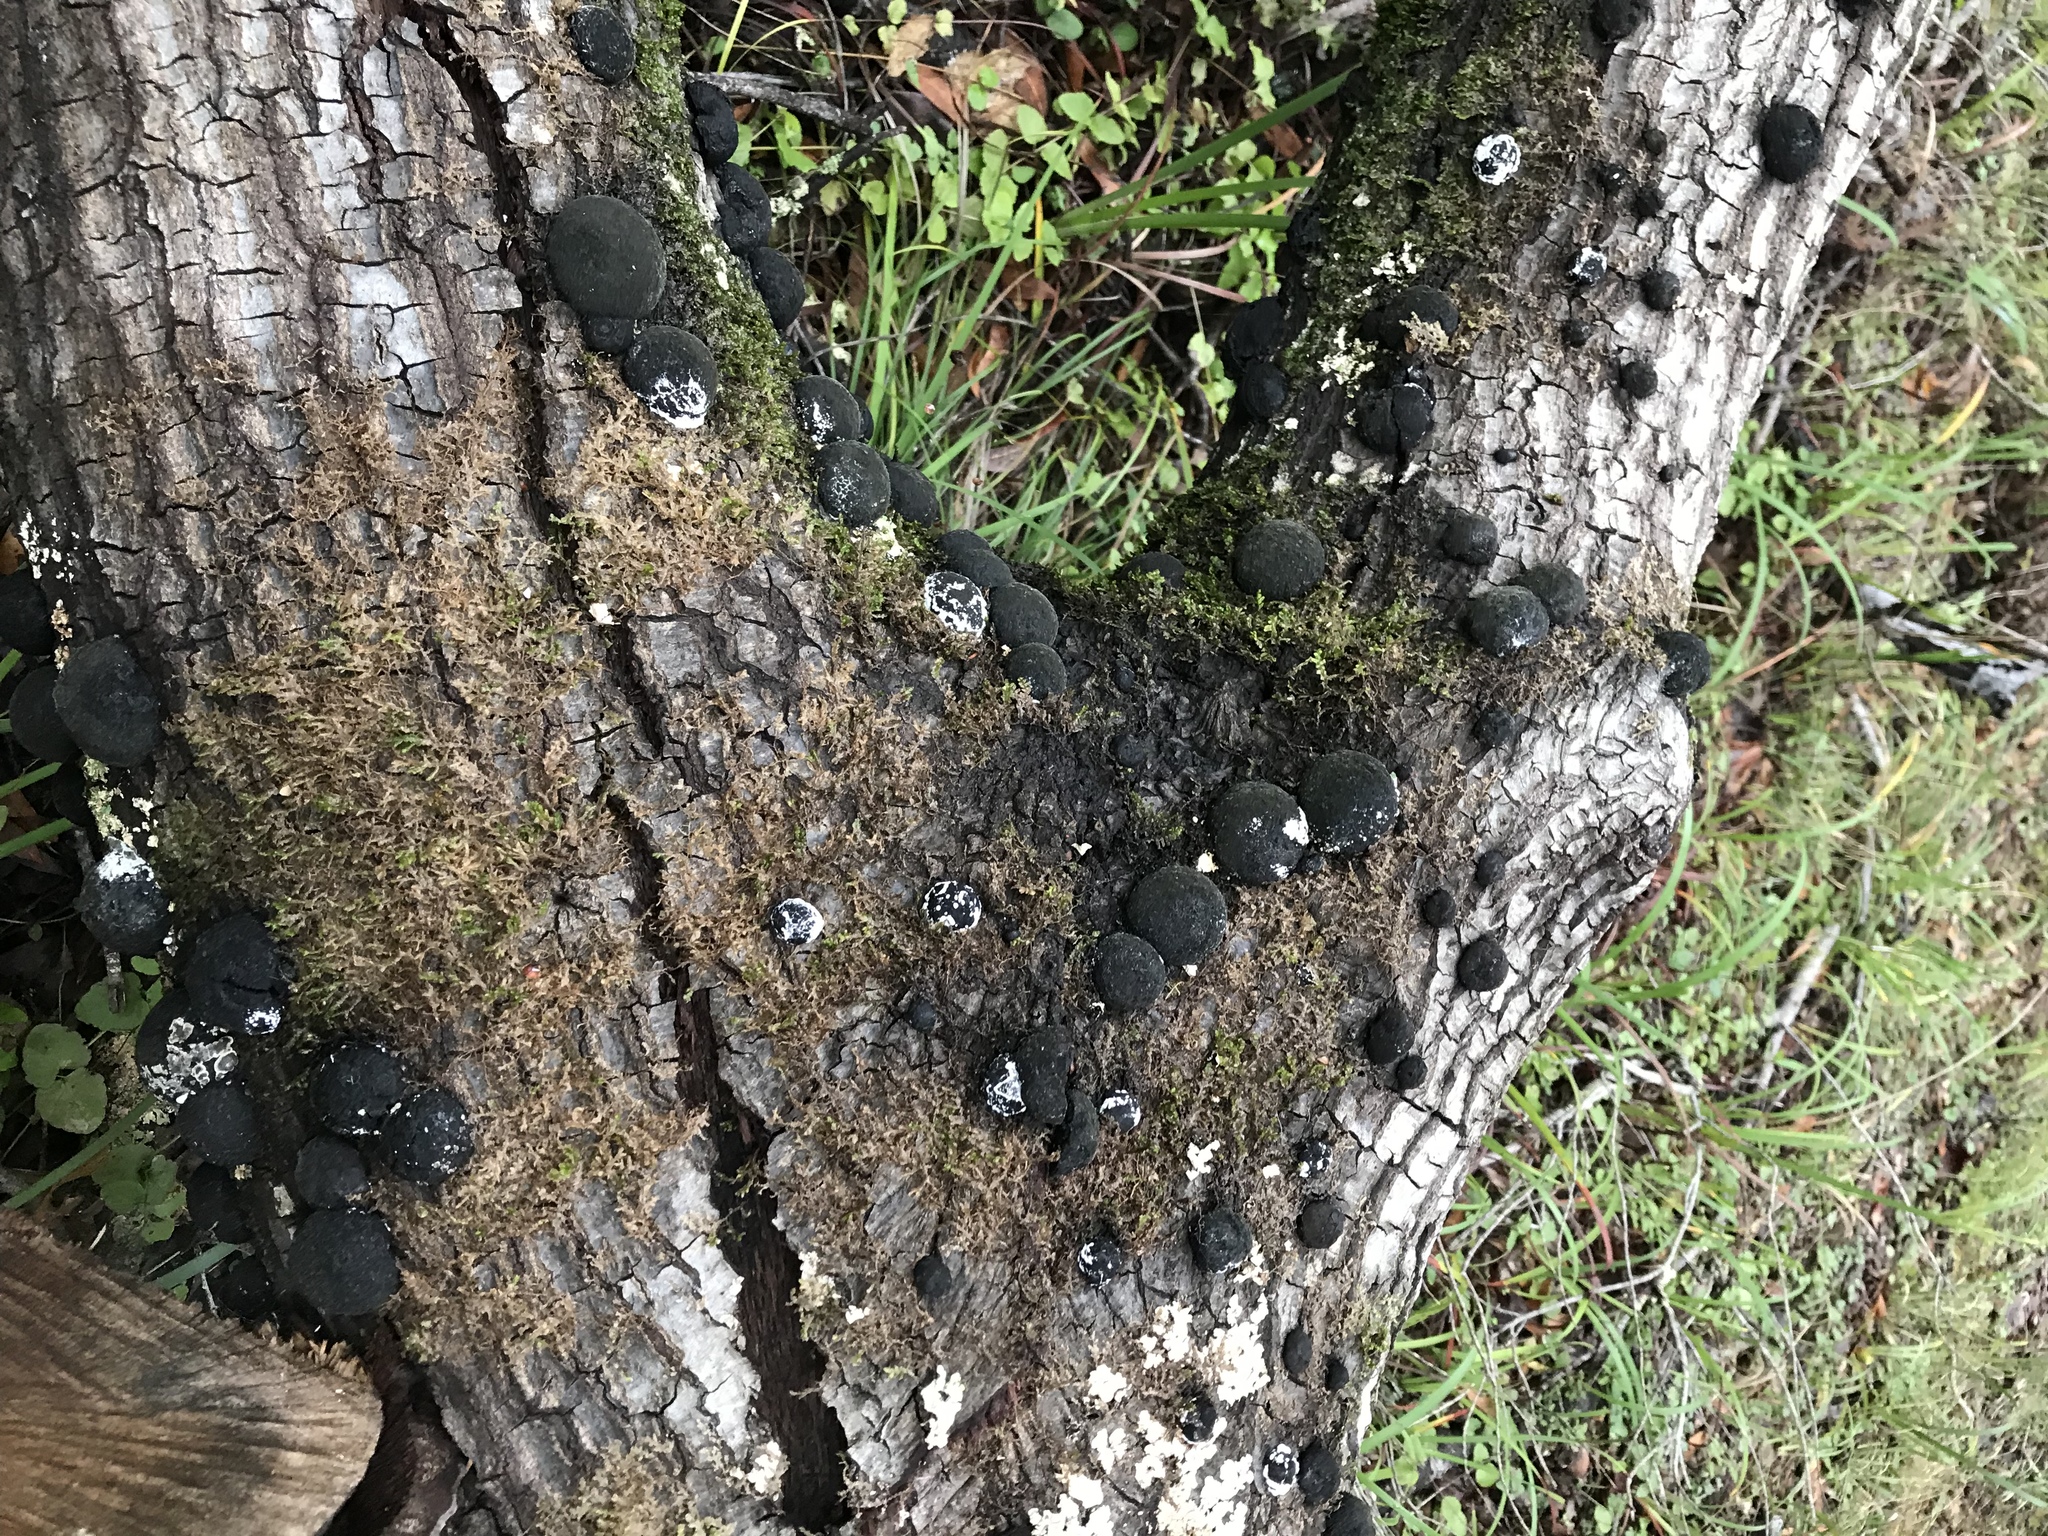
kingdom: Fungi
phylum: Ascomycota
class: Sordariomycetes
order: Xylariales
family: Hypoxylaceae
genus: Annulohypoxylon
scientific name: Annulohypoxylon thouarsianum
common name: Cramp balls
